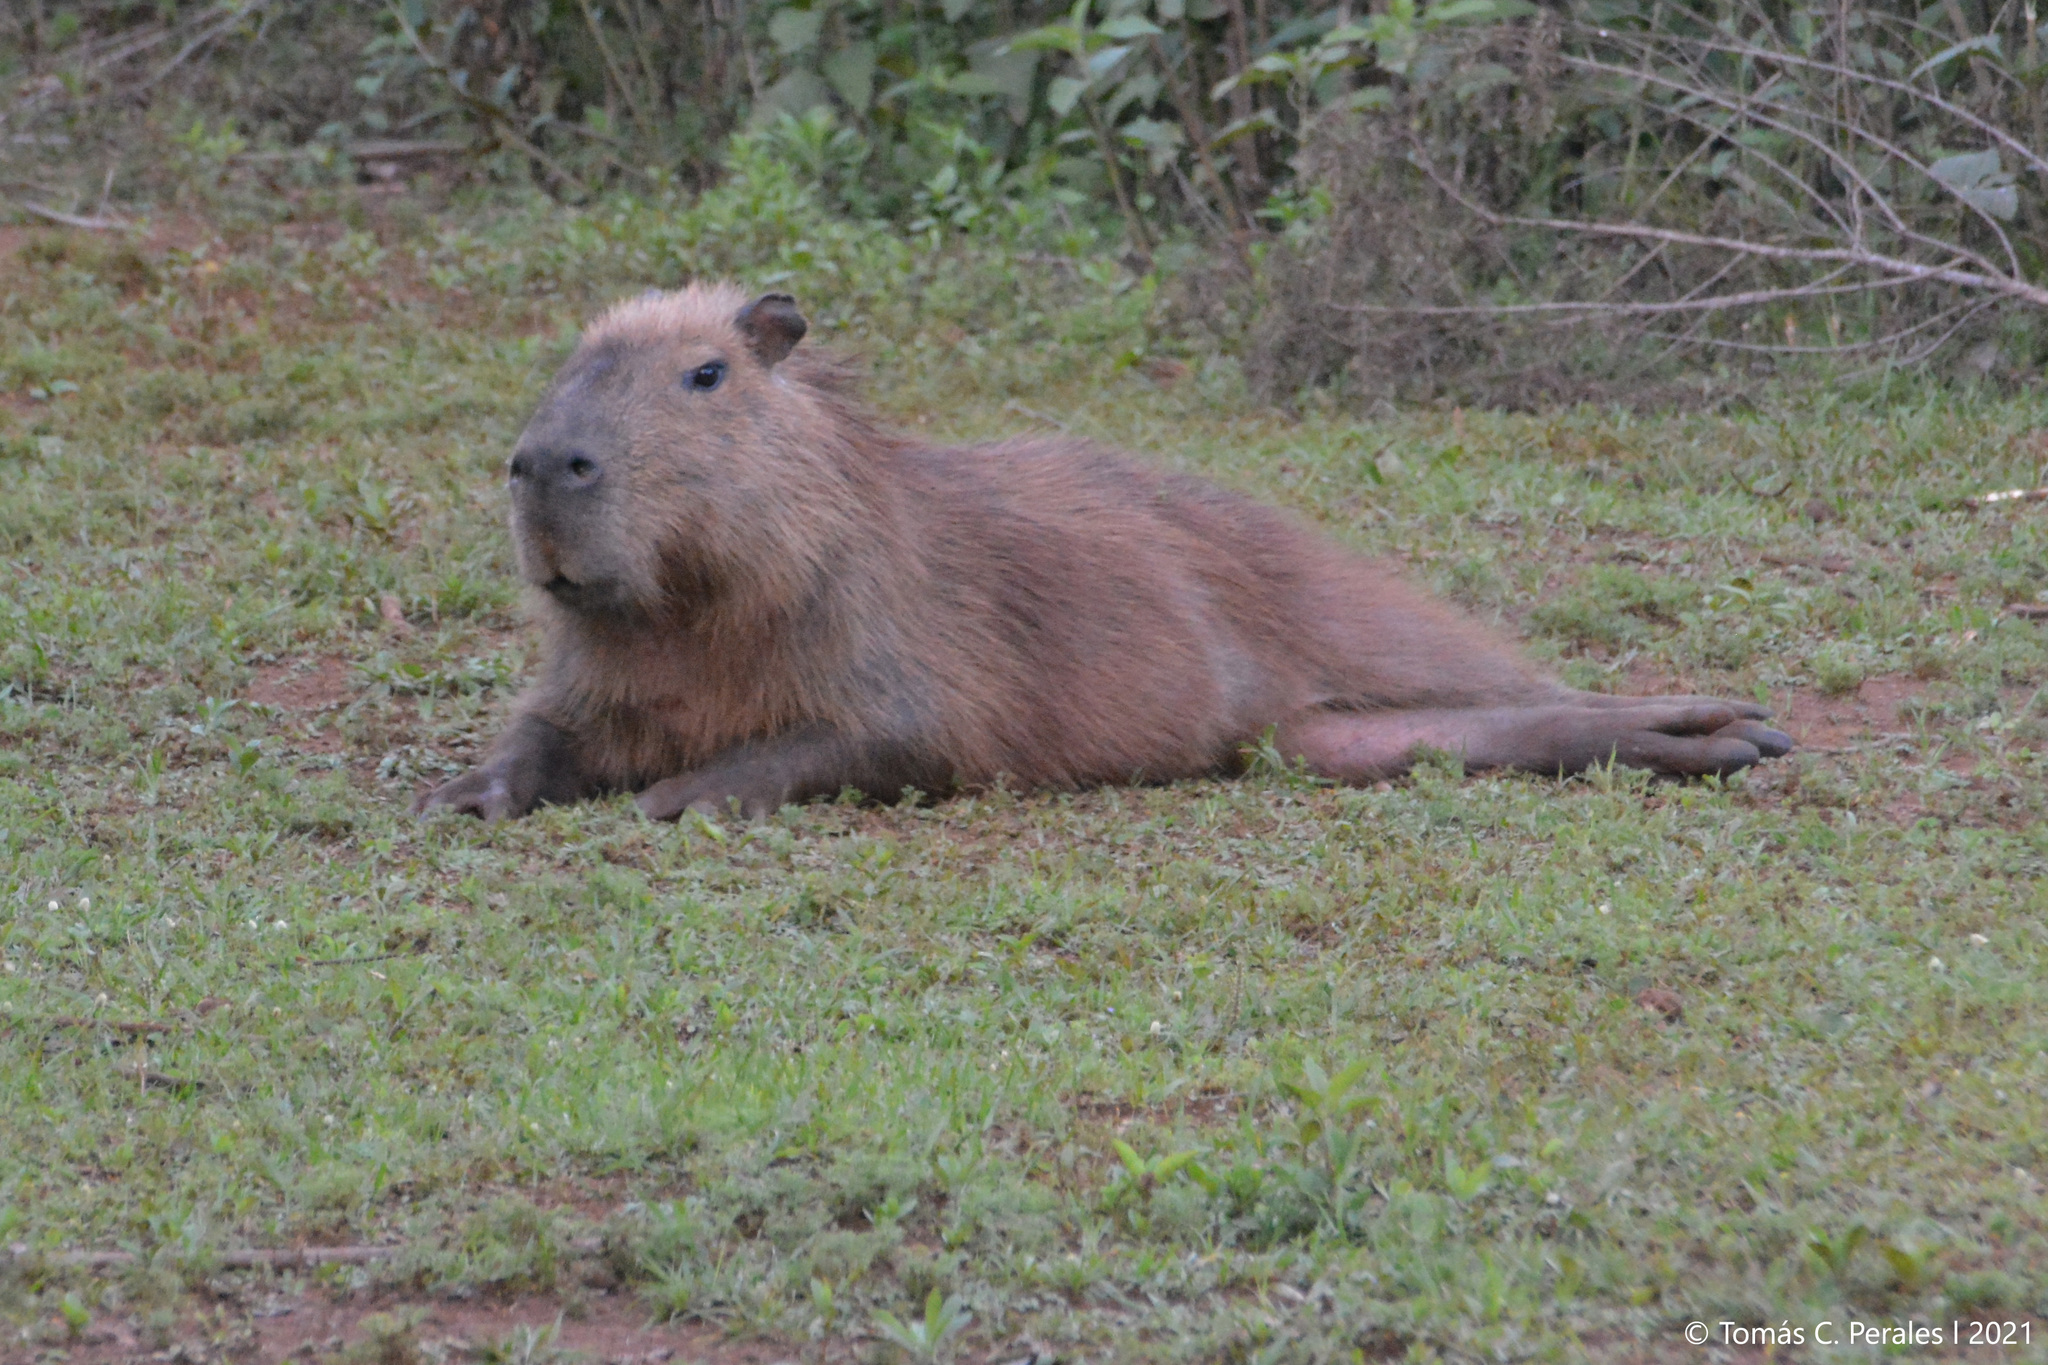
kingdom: Animalia
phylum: Chordata
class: Mammalia
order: Rodentia
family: Caviidae
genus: Hydrochoerus
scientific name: Hydrochoerus hydrochaeris
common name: Capybara
